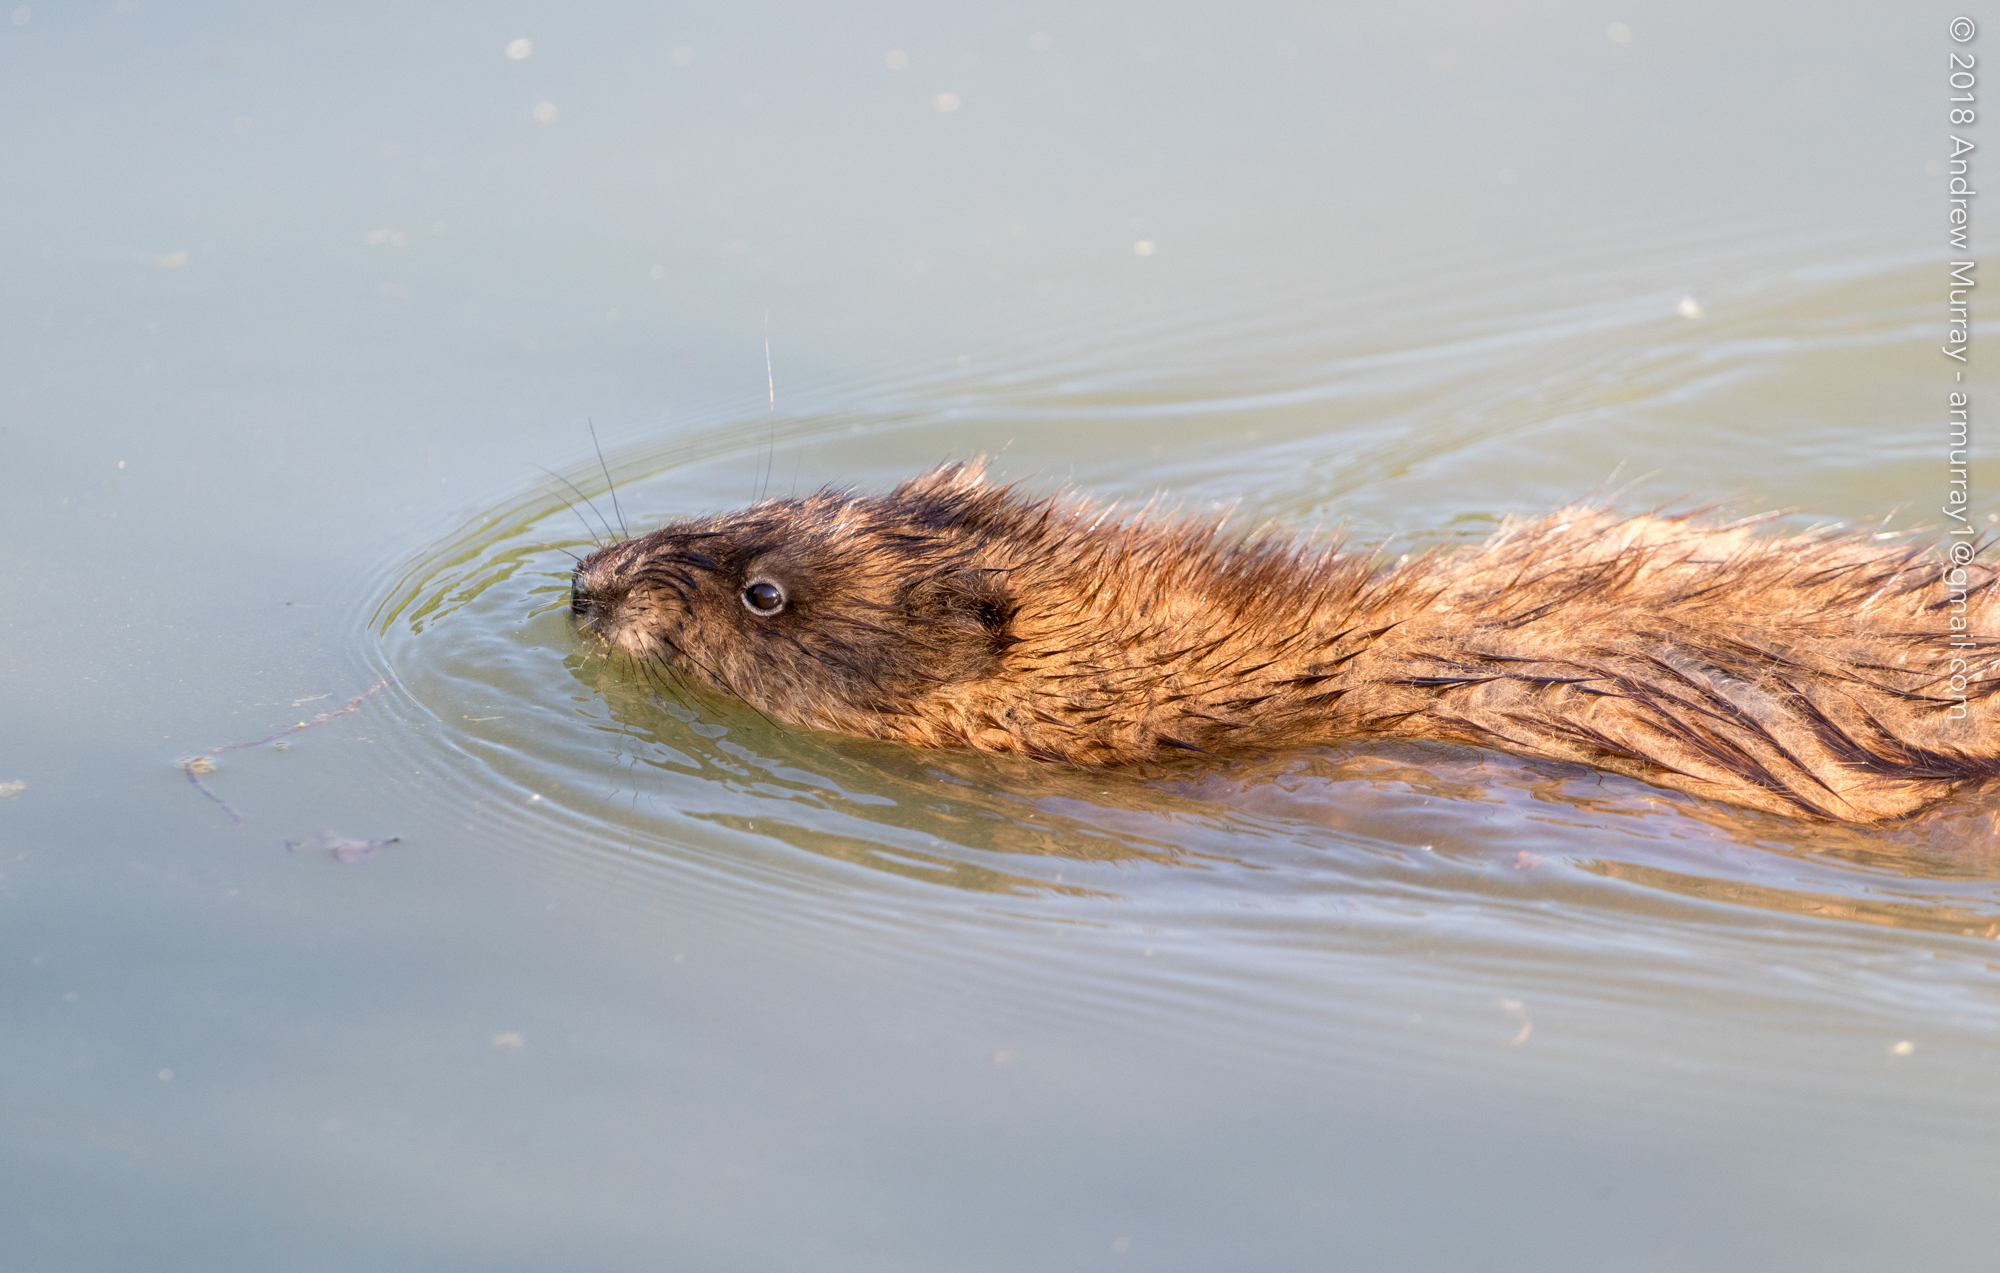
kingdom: Animalia
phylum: Chordata
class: Mammalia
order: Rodentia
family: Cricetidae
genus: Ondatra
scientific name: Ondatra zibethicus
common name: Muskrat
